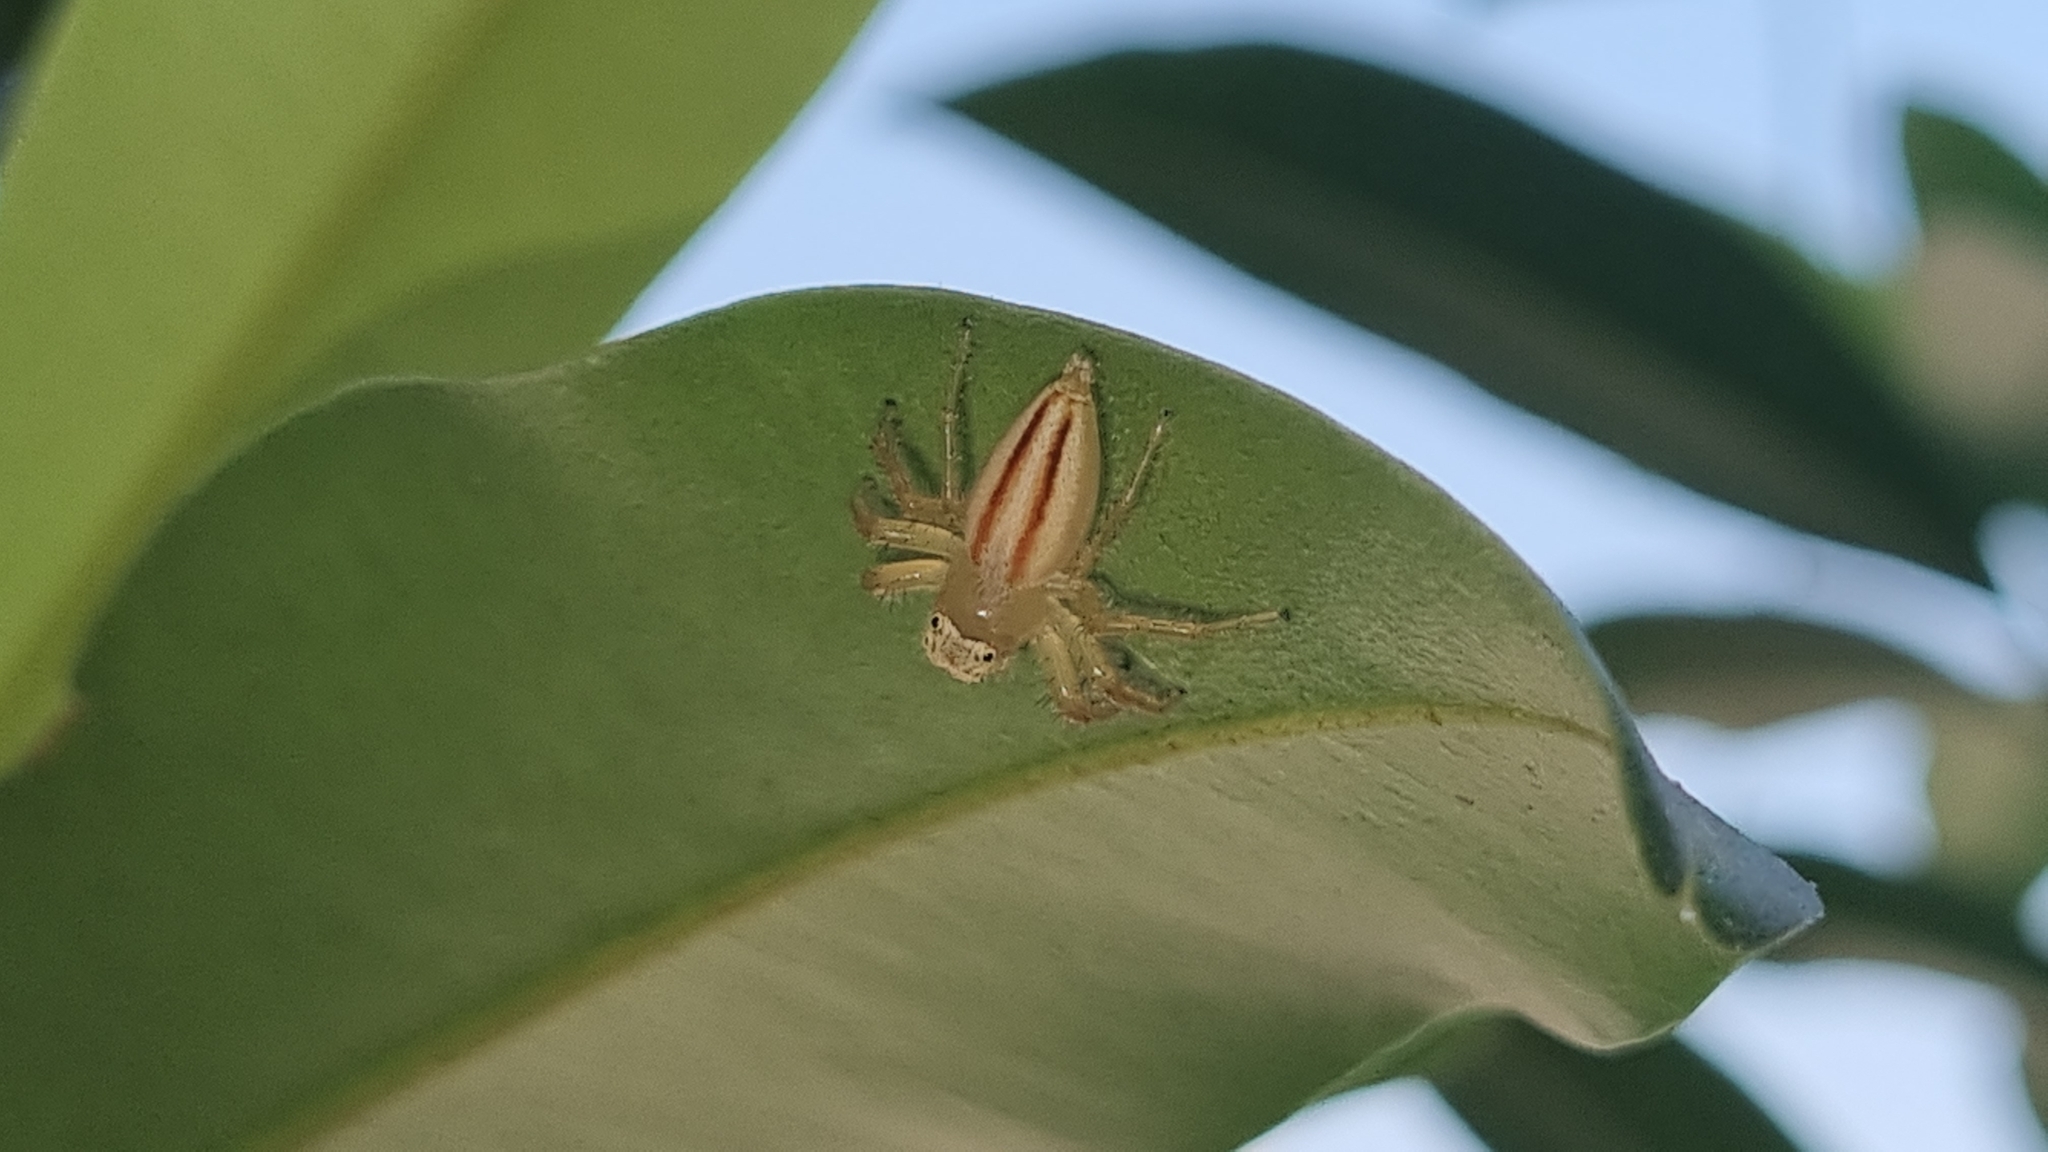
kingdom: Animalia
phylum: Arthropoda
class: Arachnida
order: Araneae
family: Salticidae
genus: Telamonia
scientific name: Telamonia dimidiata
